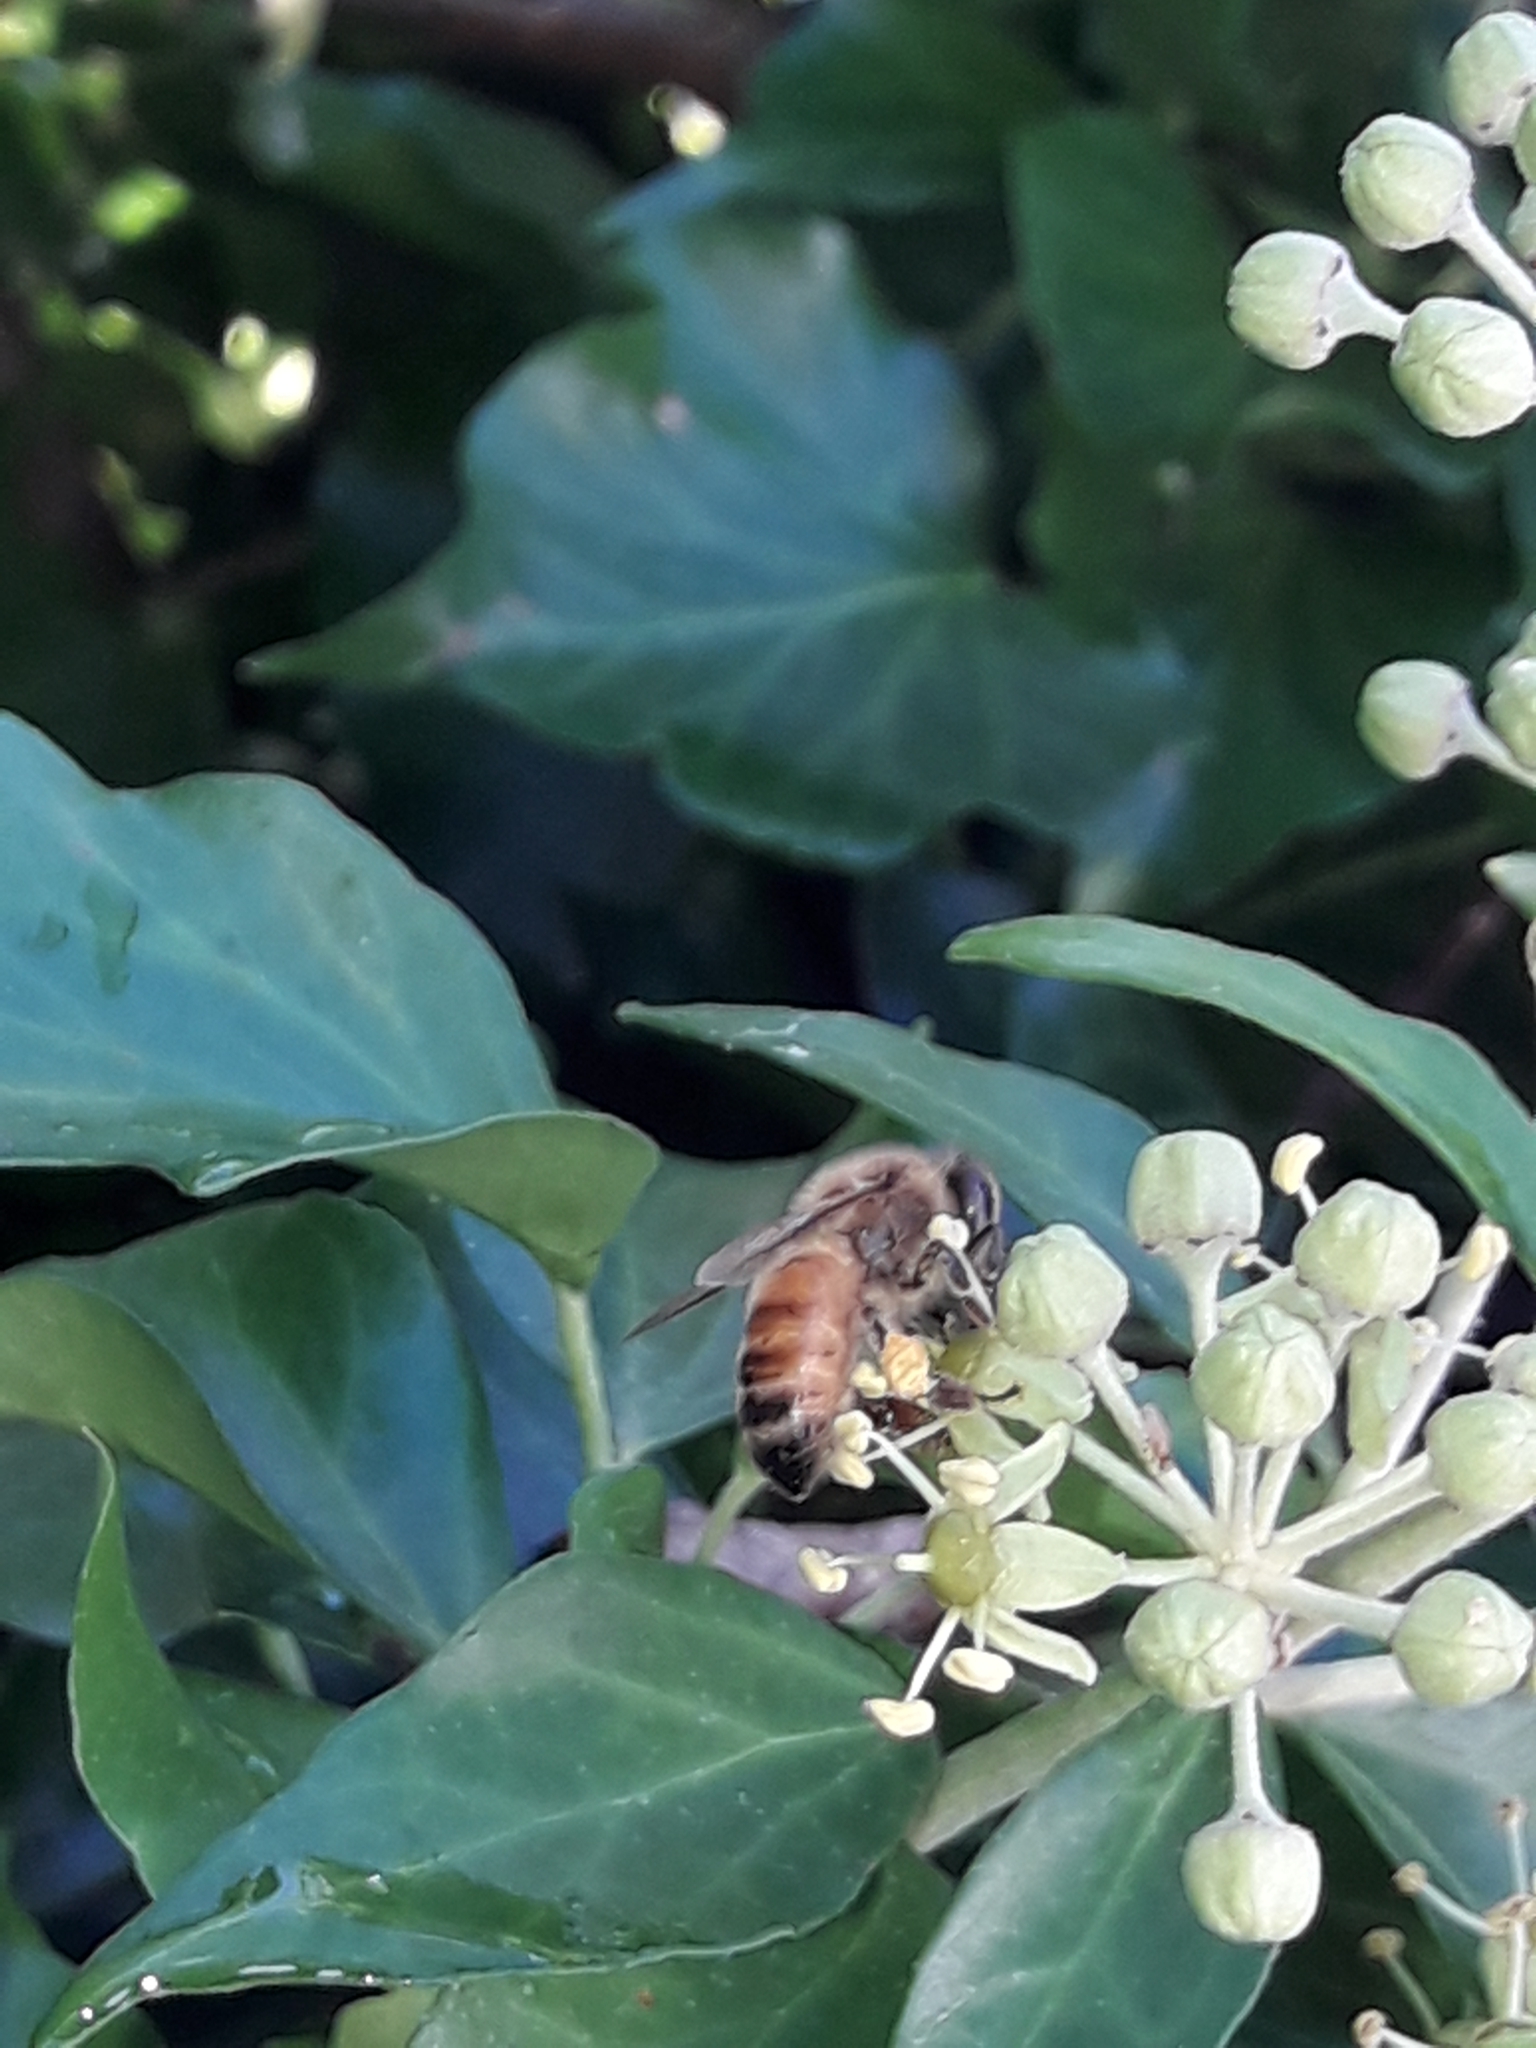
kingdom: Animalia
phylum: Arthropoda
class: Insecta
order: Hymenoptera
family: Apidae
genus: Apis
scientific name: Apis mellifera
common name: Honey bee
